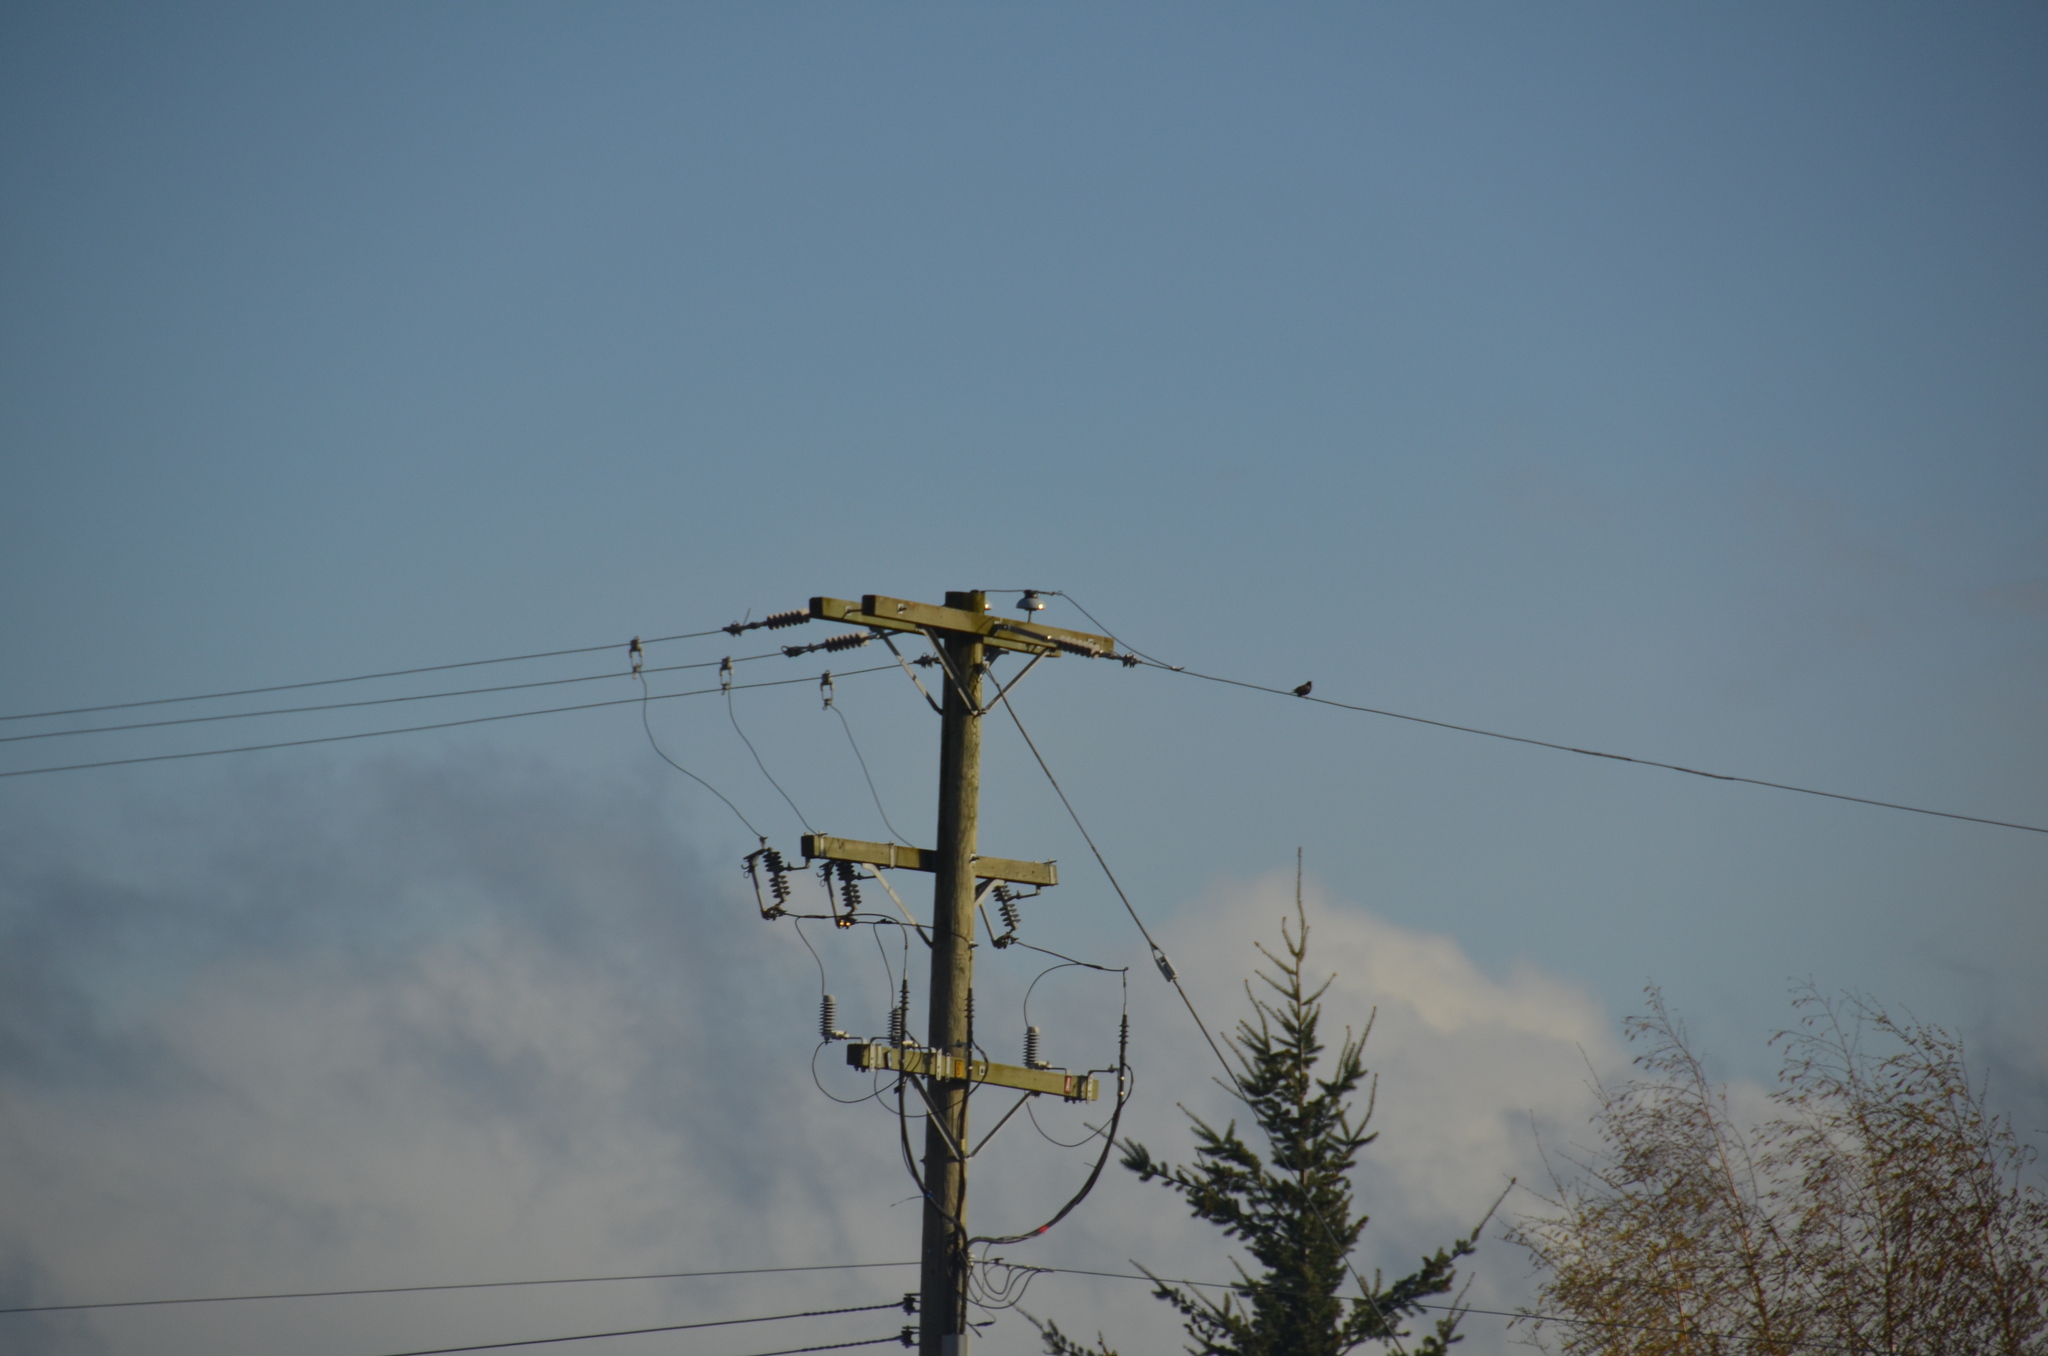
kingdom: Animalia
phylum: Chordata
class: Aves
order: Passeriformes
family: Sturnidae
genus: Sturnus
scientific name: Sturnus vulgaris
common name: Common starling
